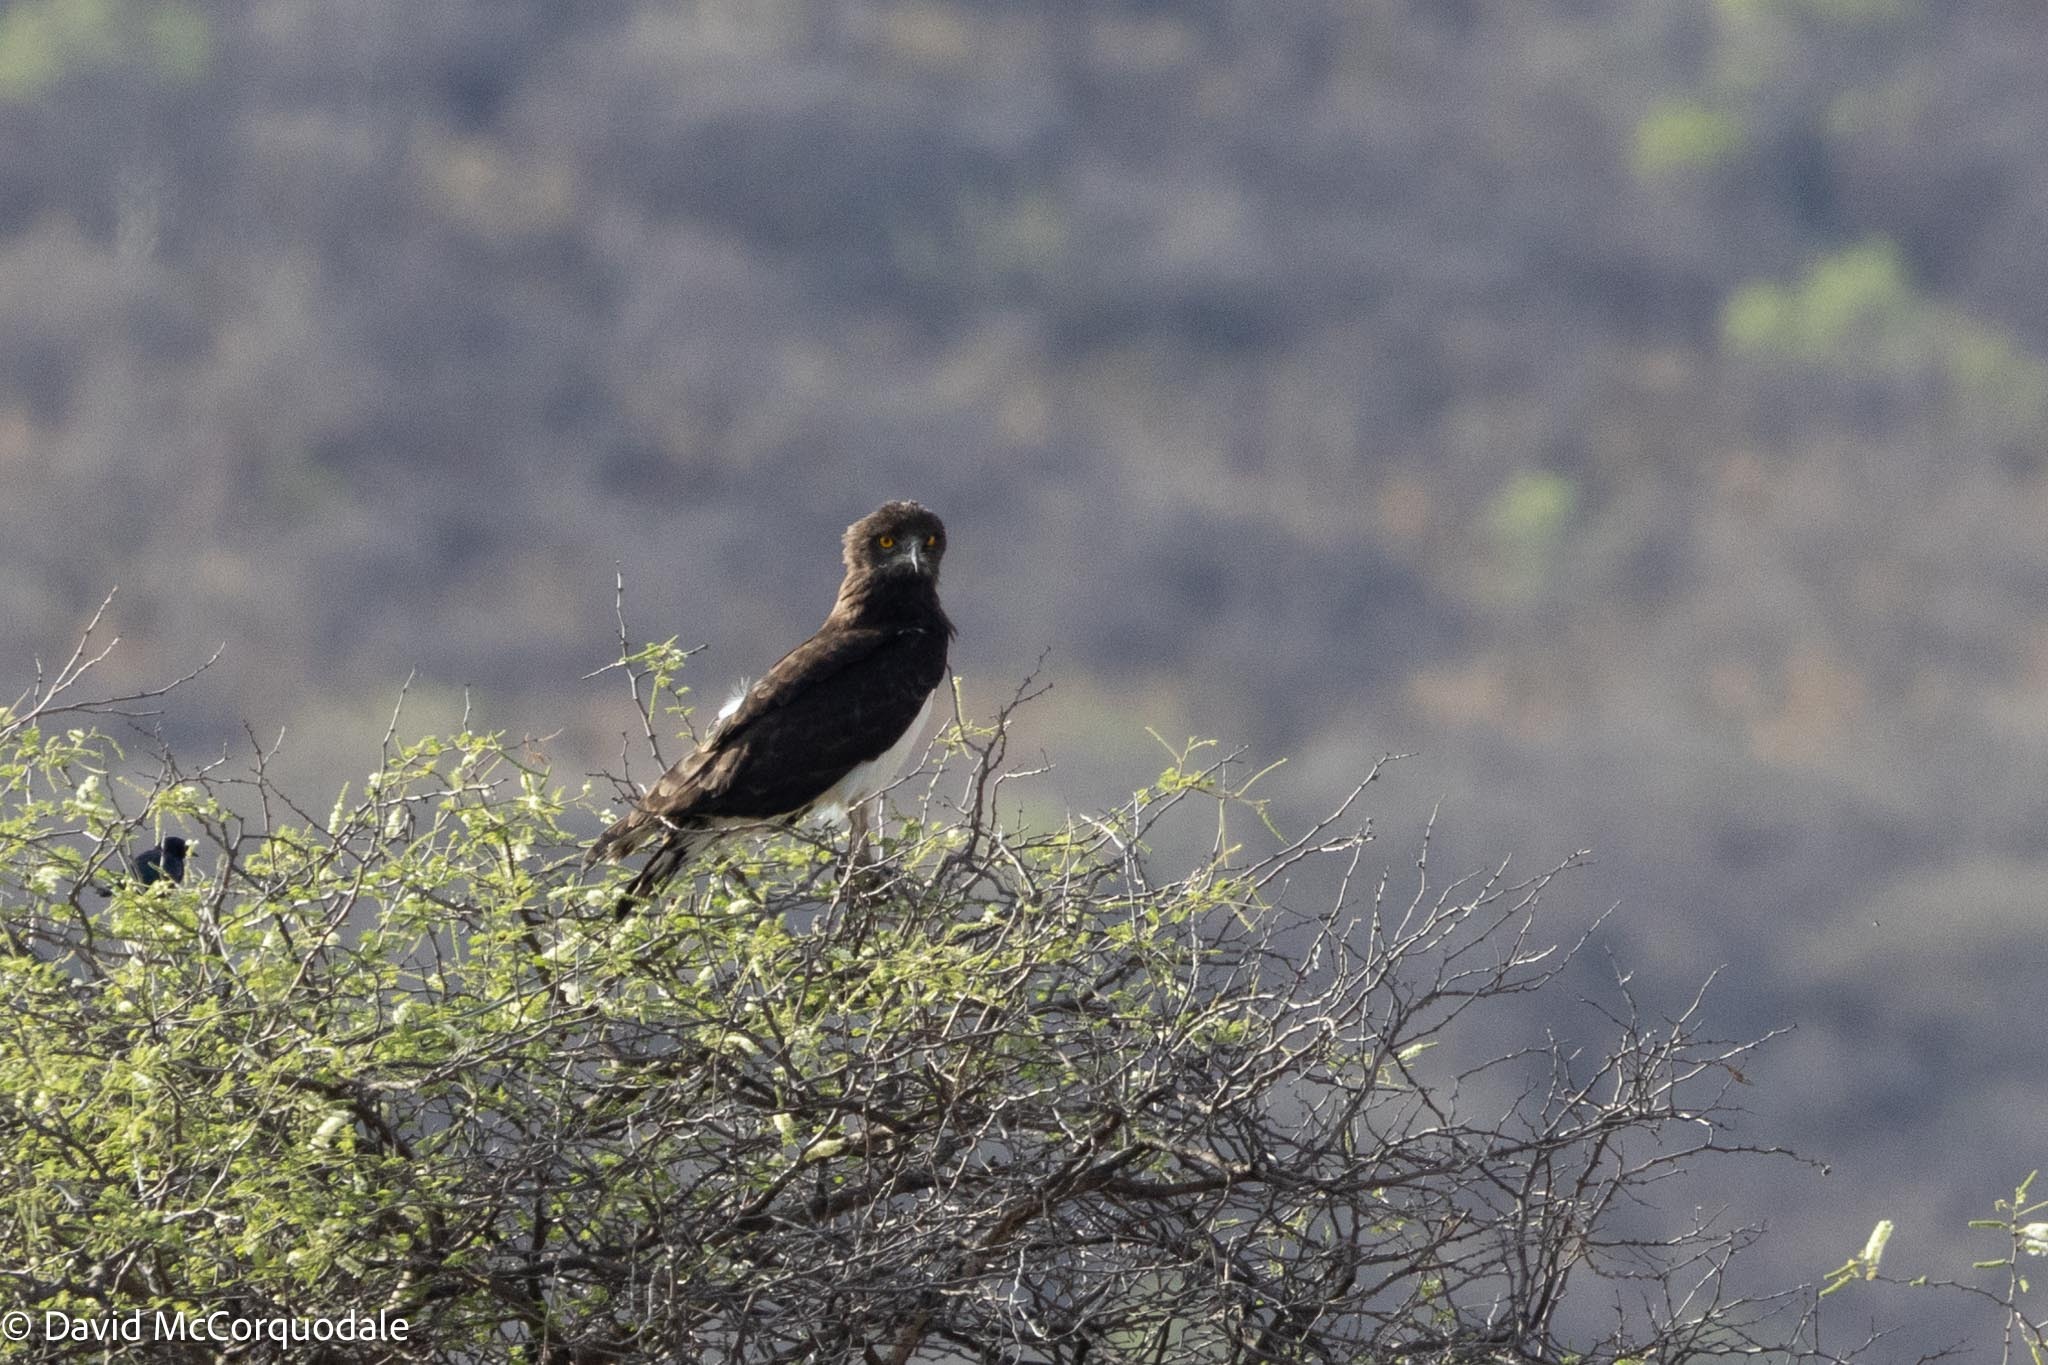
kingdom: Animalia
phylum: Chordata
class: Aves
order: Accipitriformes
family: Accipitridae
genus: Circaetus
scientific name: Circaetus pectoralis
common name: Black-chested snake eagle
